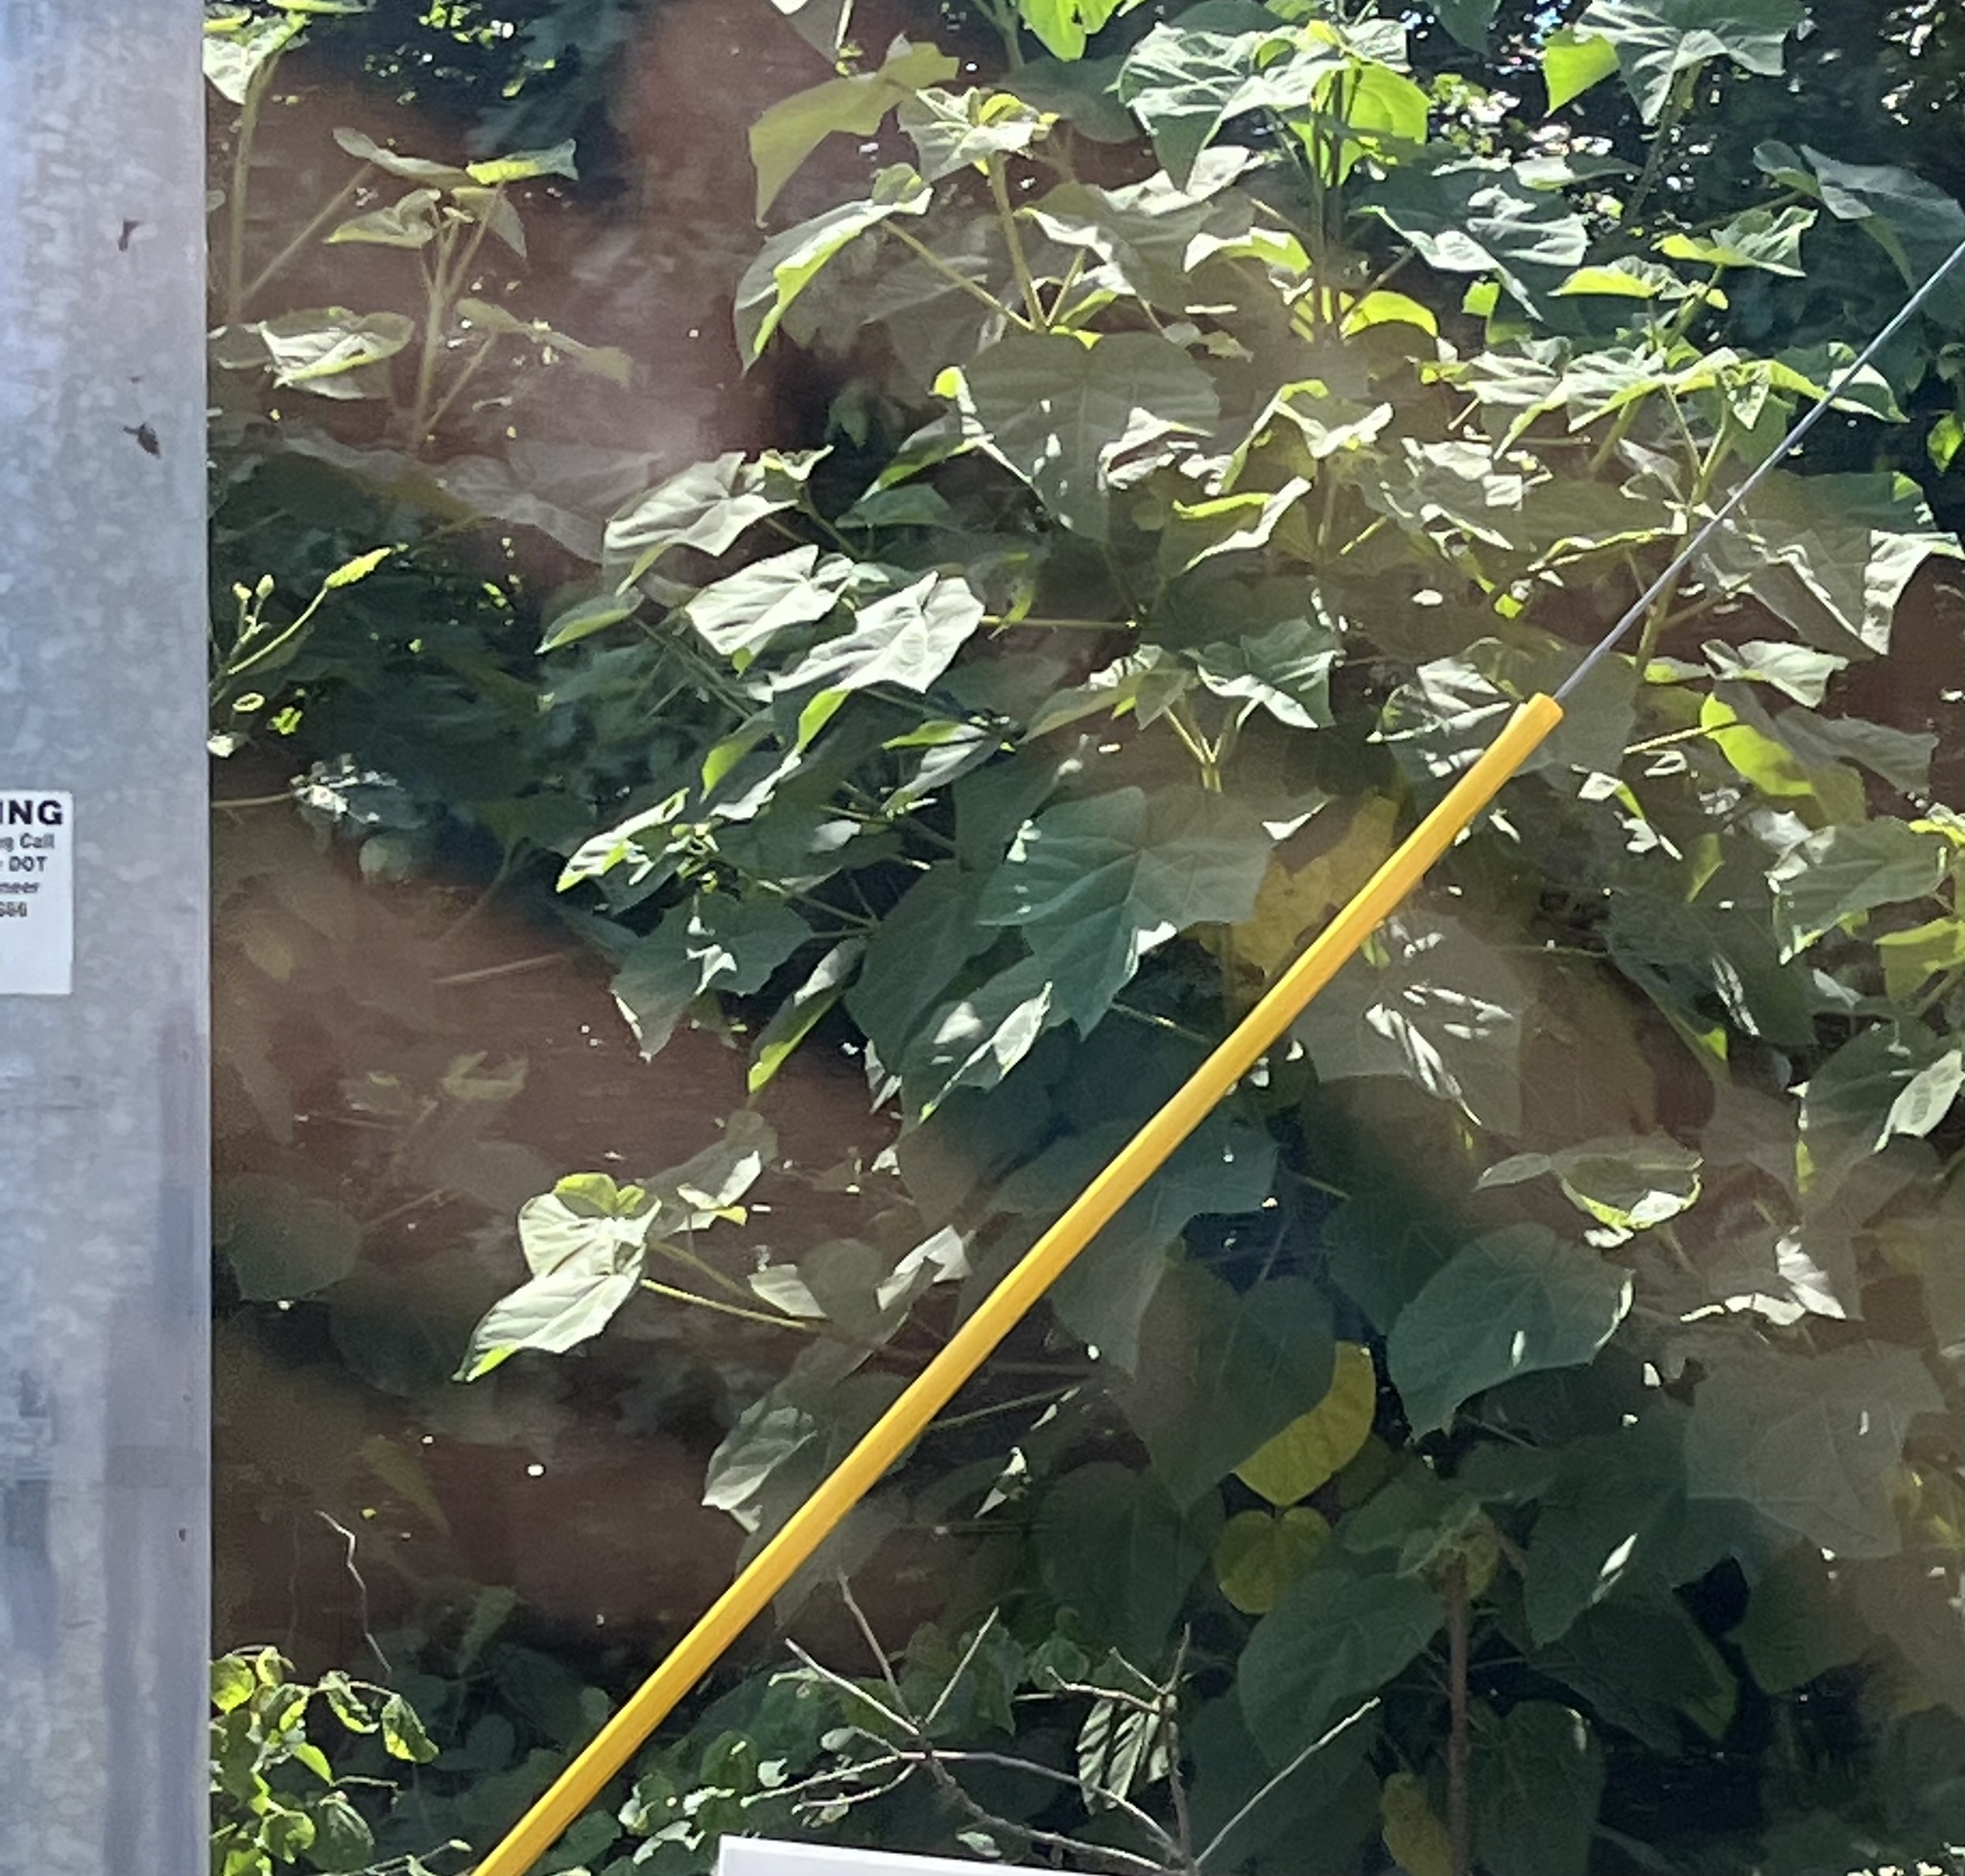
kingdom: Plantae
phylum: Tracheophyta
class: Magnoliopsida
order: Lamiales
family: Paulowniaceae
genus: Paulownia
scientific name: Paulownia tomentosa
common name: Foxglove-tree
